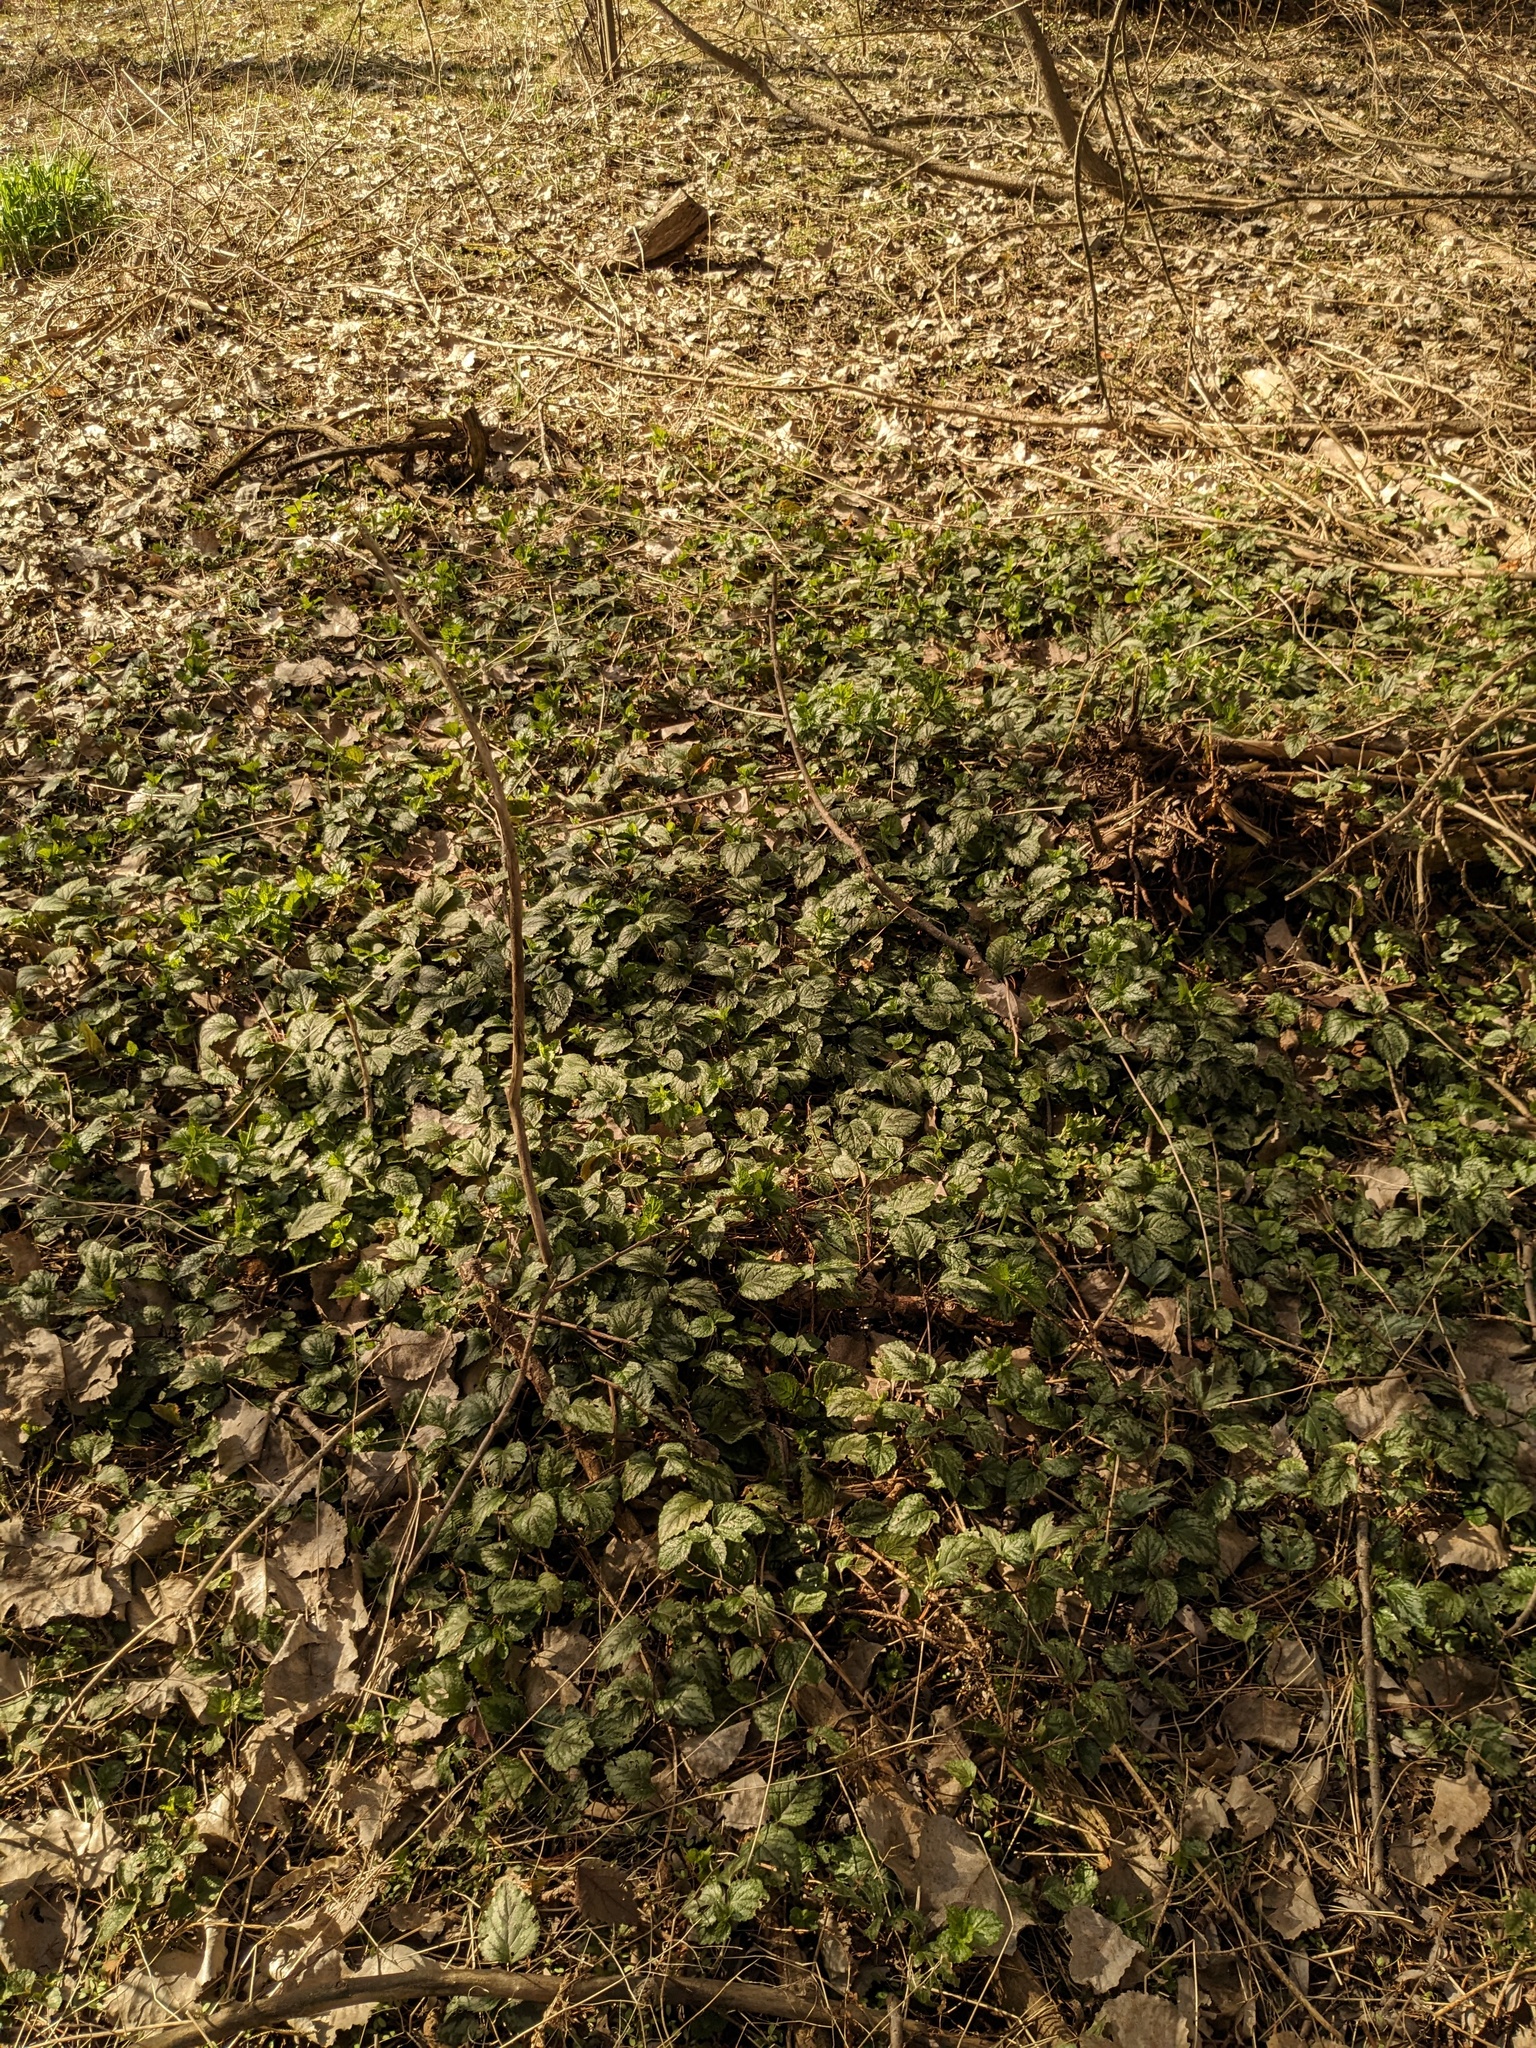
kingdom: Plantae
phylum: Tracheophyta
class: Magnoliopsida
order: Lamiales
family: Lamiaceae
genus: Lamium
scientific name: Lamium galeobdolon
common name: Yellow archangel
